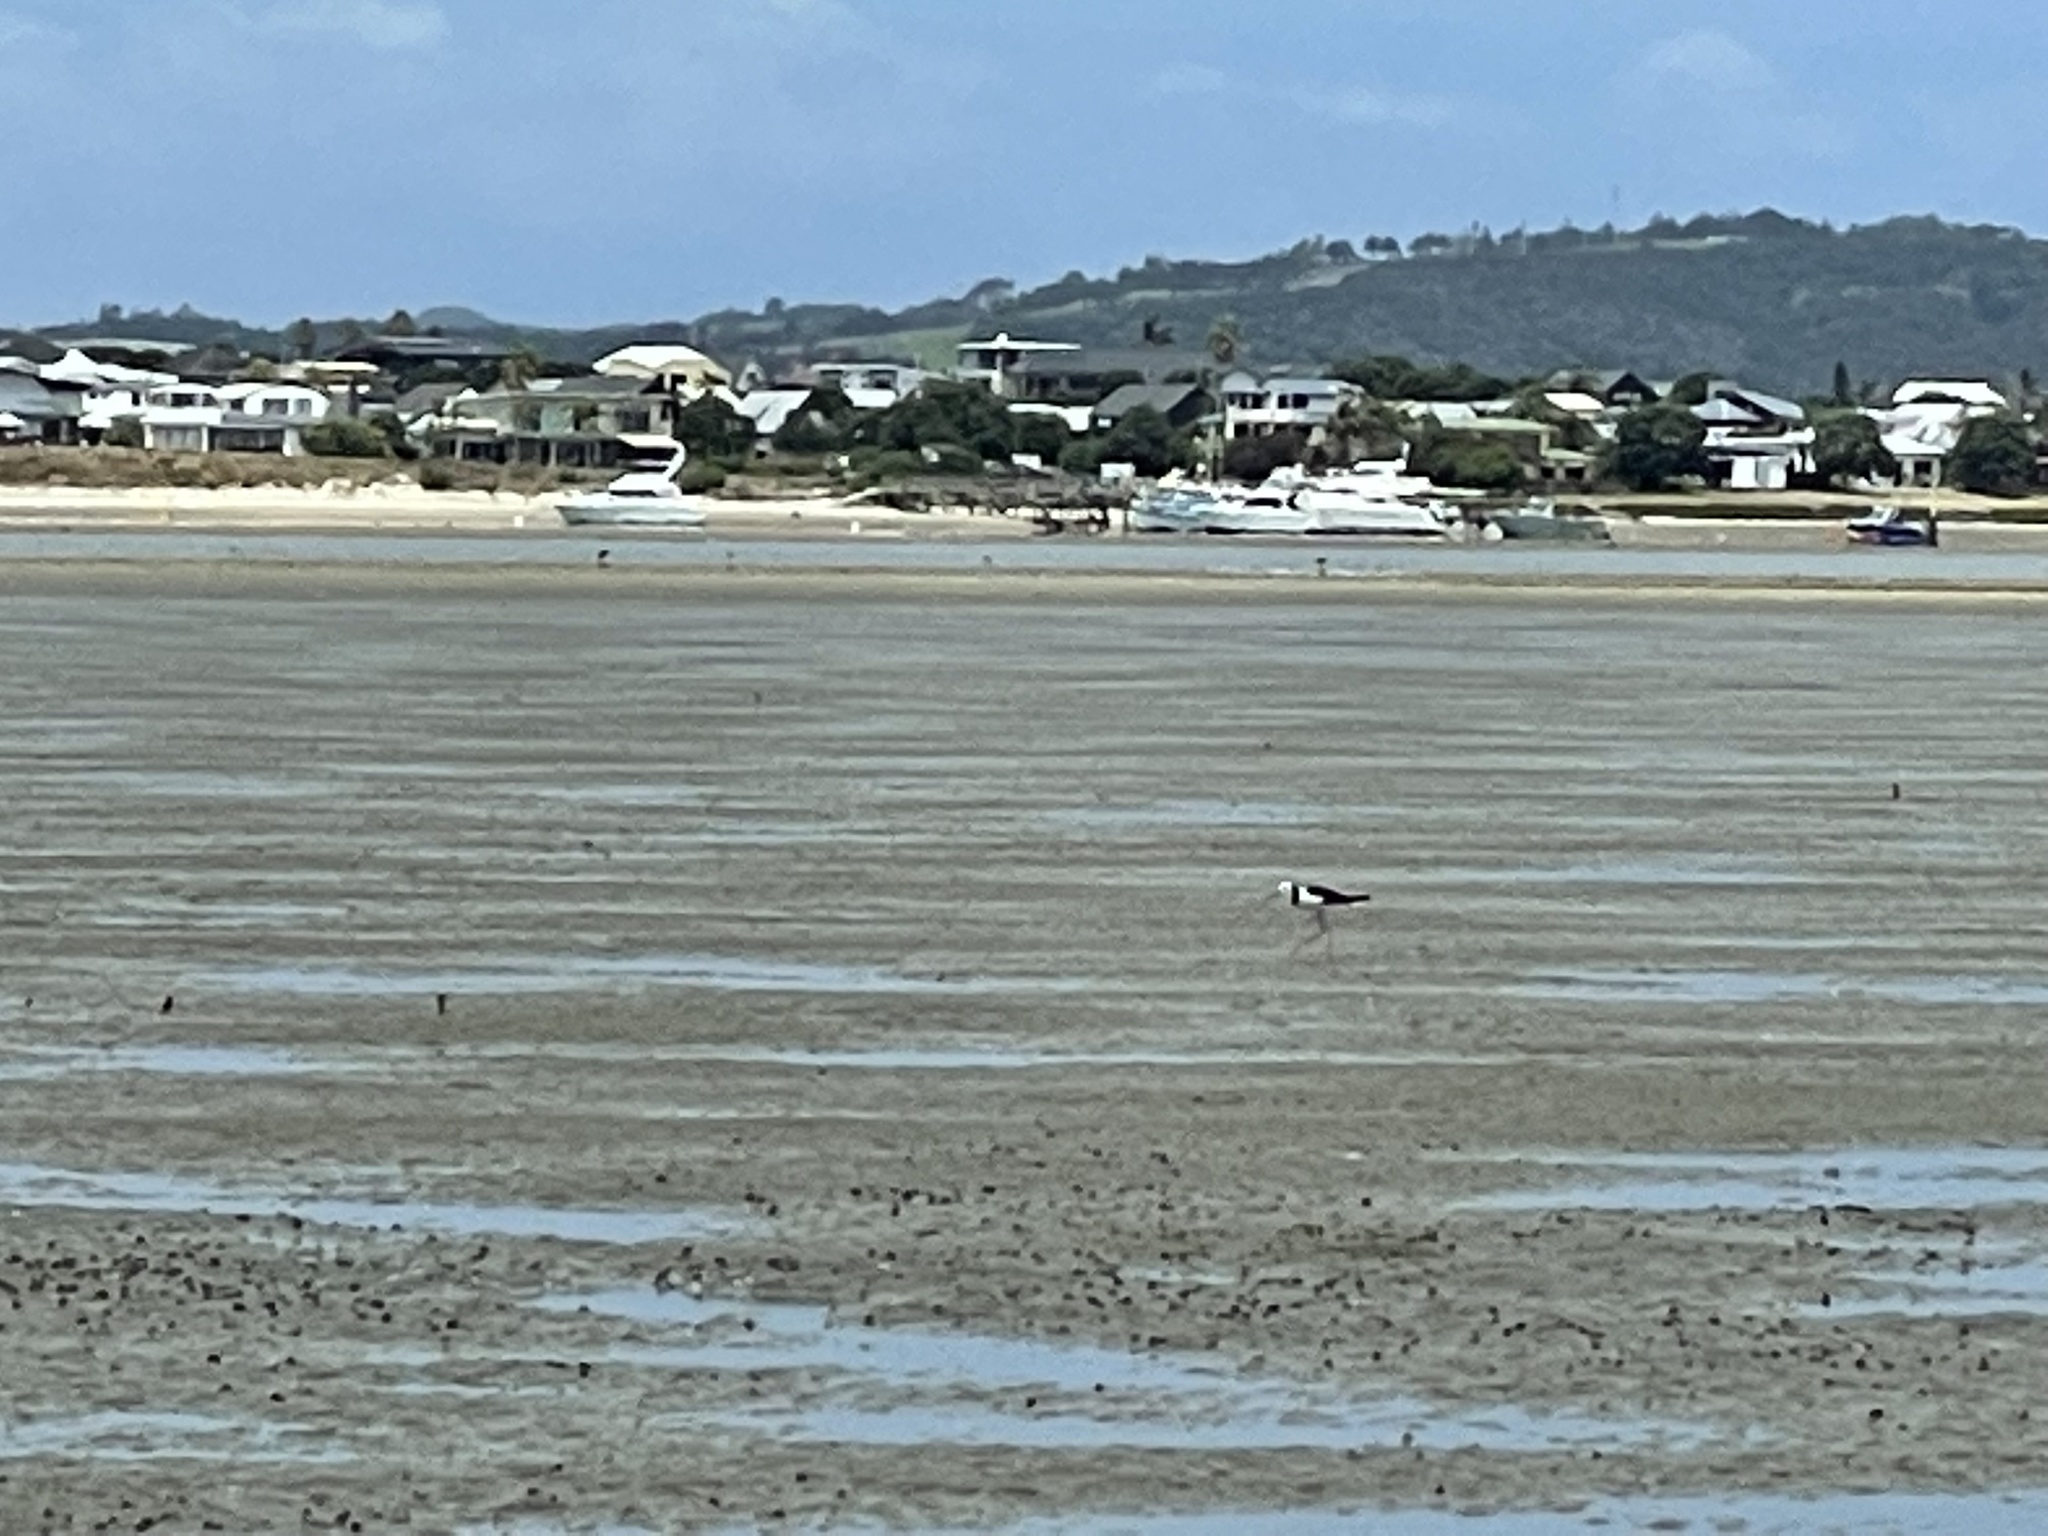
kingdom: Animalia
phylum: Chordata
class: Aves
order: Charadriiformes
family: Recurvirostridae
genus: Himantopus
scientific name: Himantopus leucocephalus
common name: White-headed stilt
